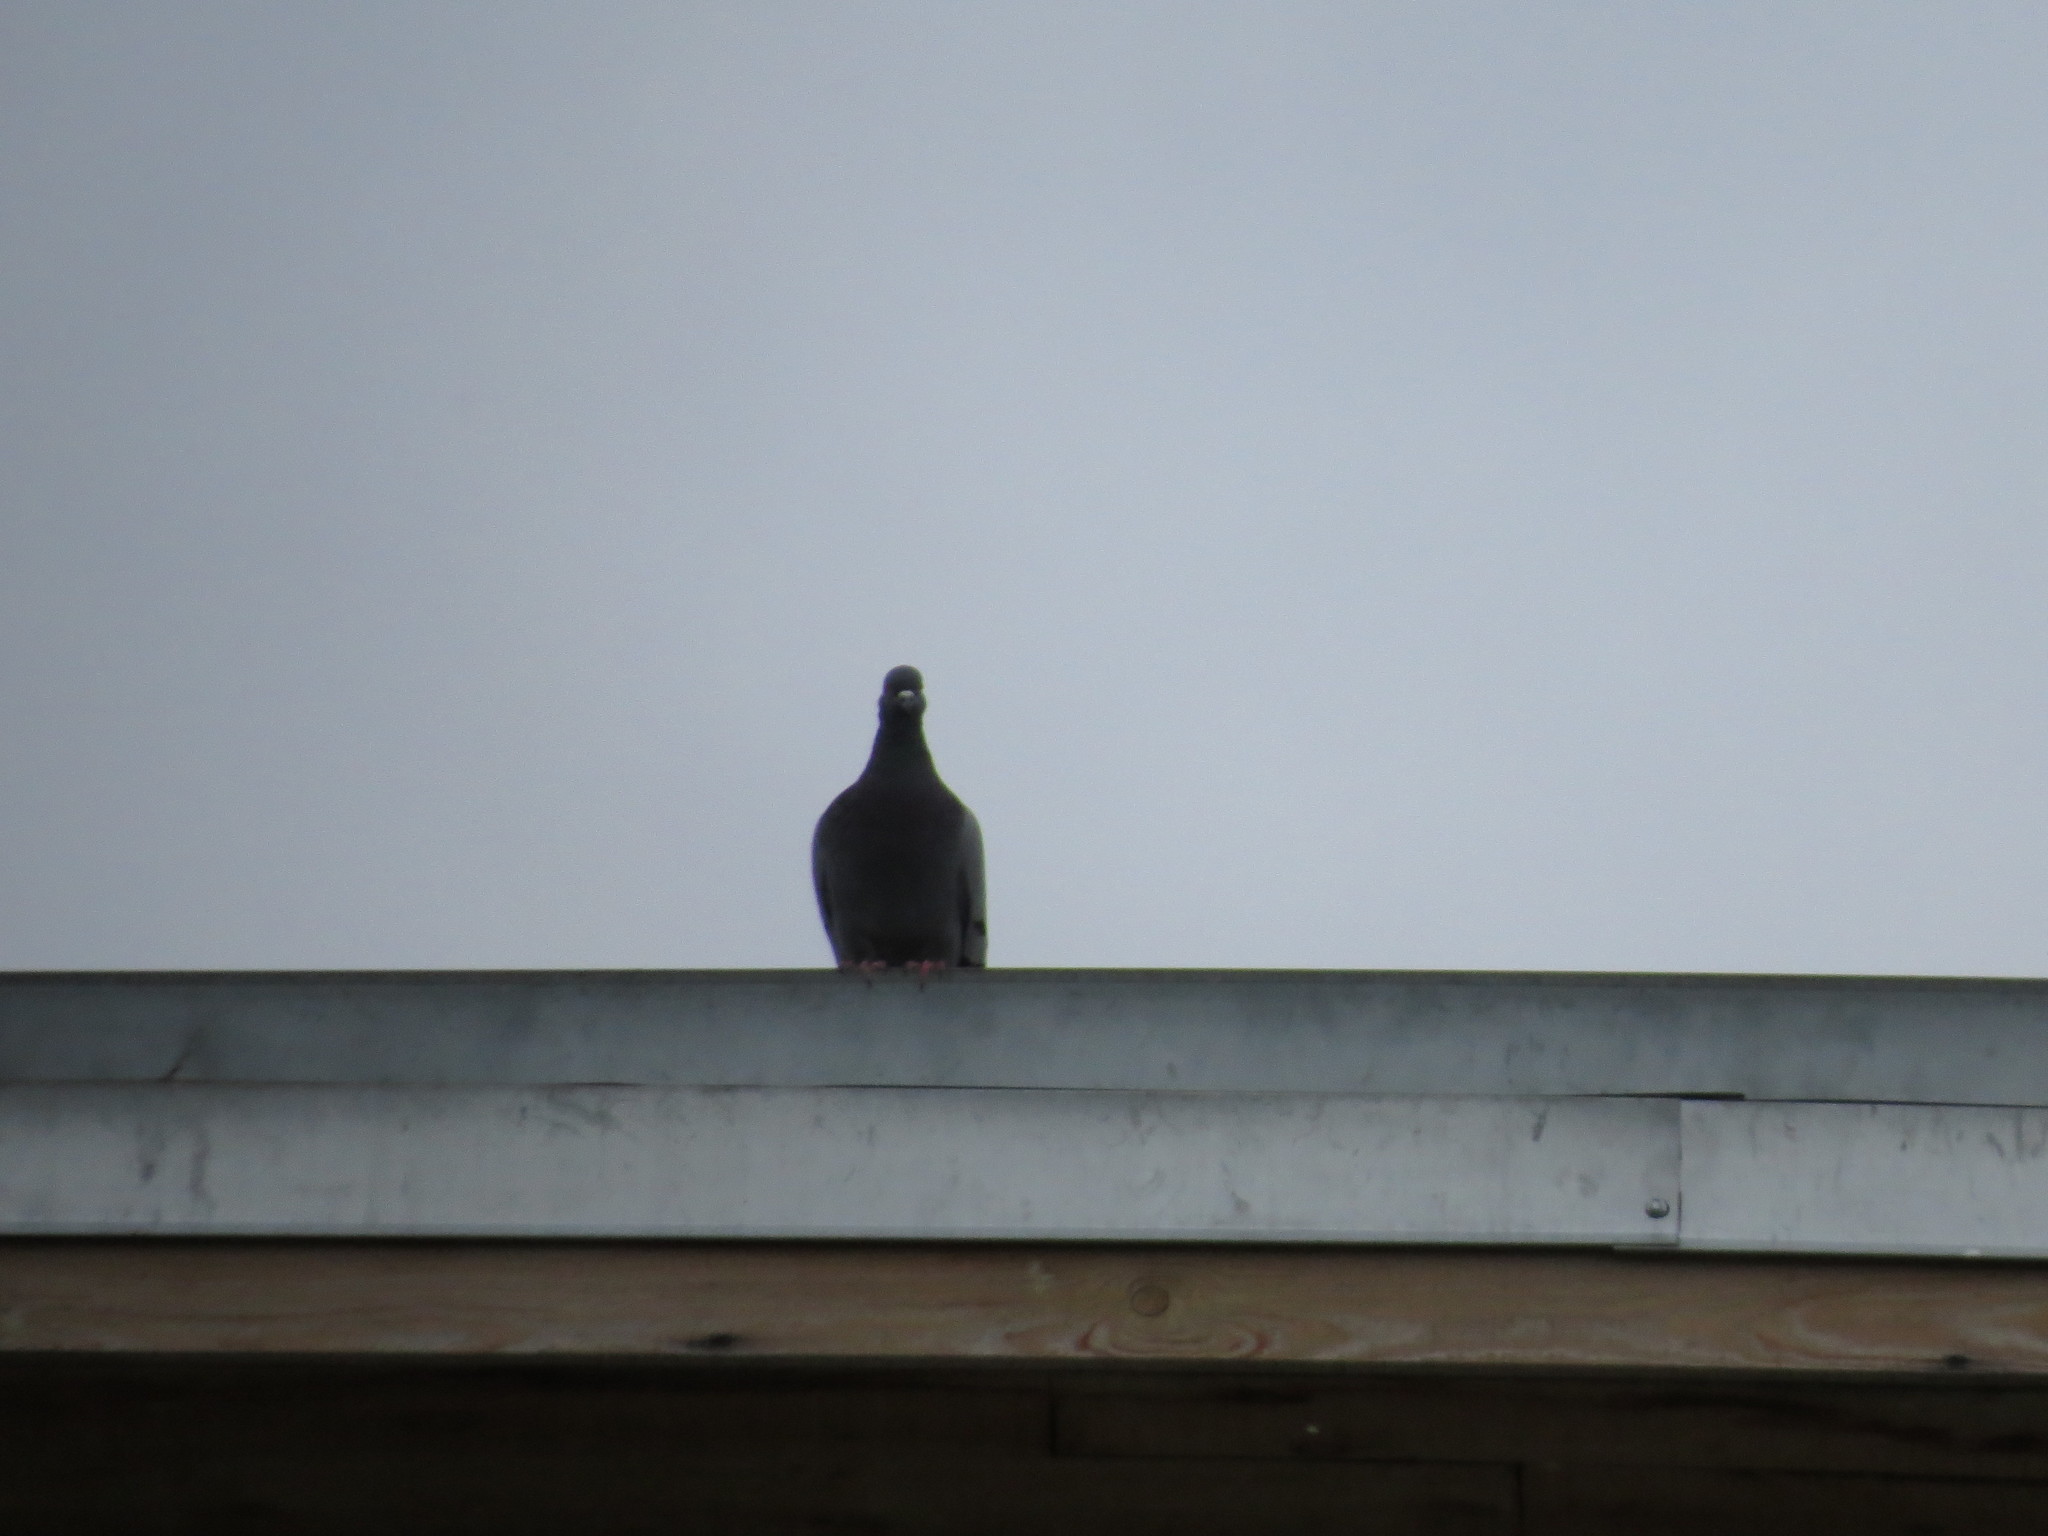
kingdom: Animalia
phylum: Chordata
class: Aves
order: Columbiformes
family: Columbidae
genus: Columba
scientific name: Columba livia
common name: Rock pigeon
